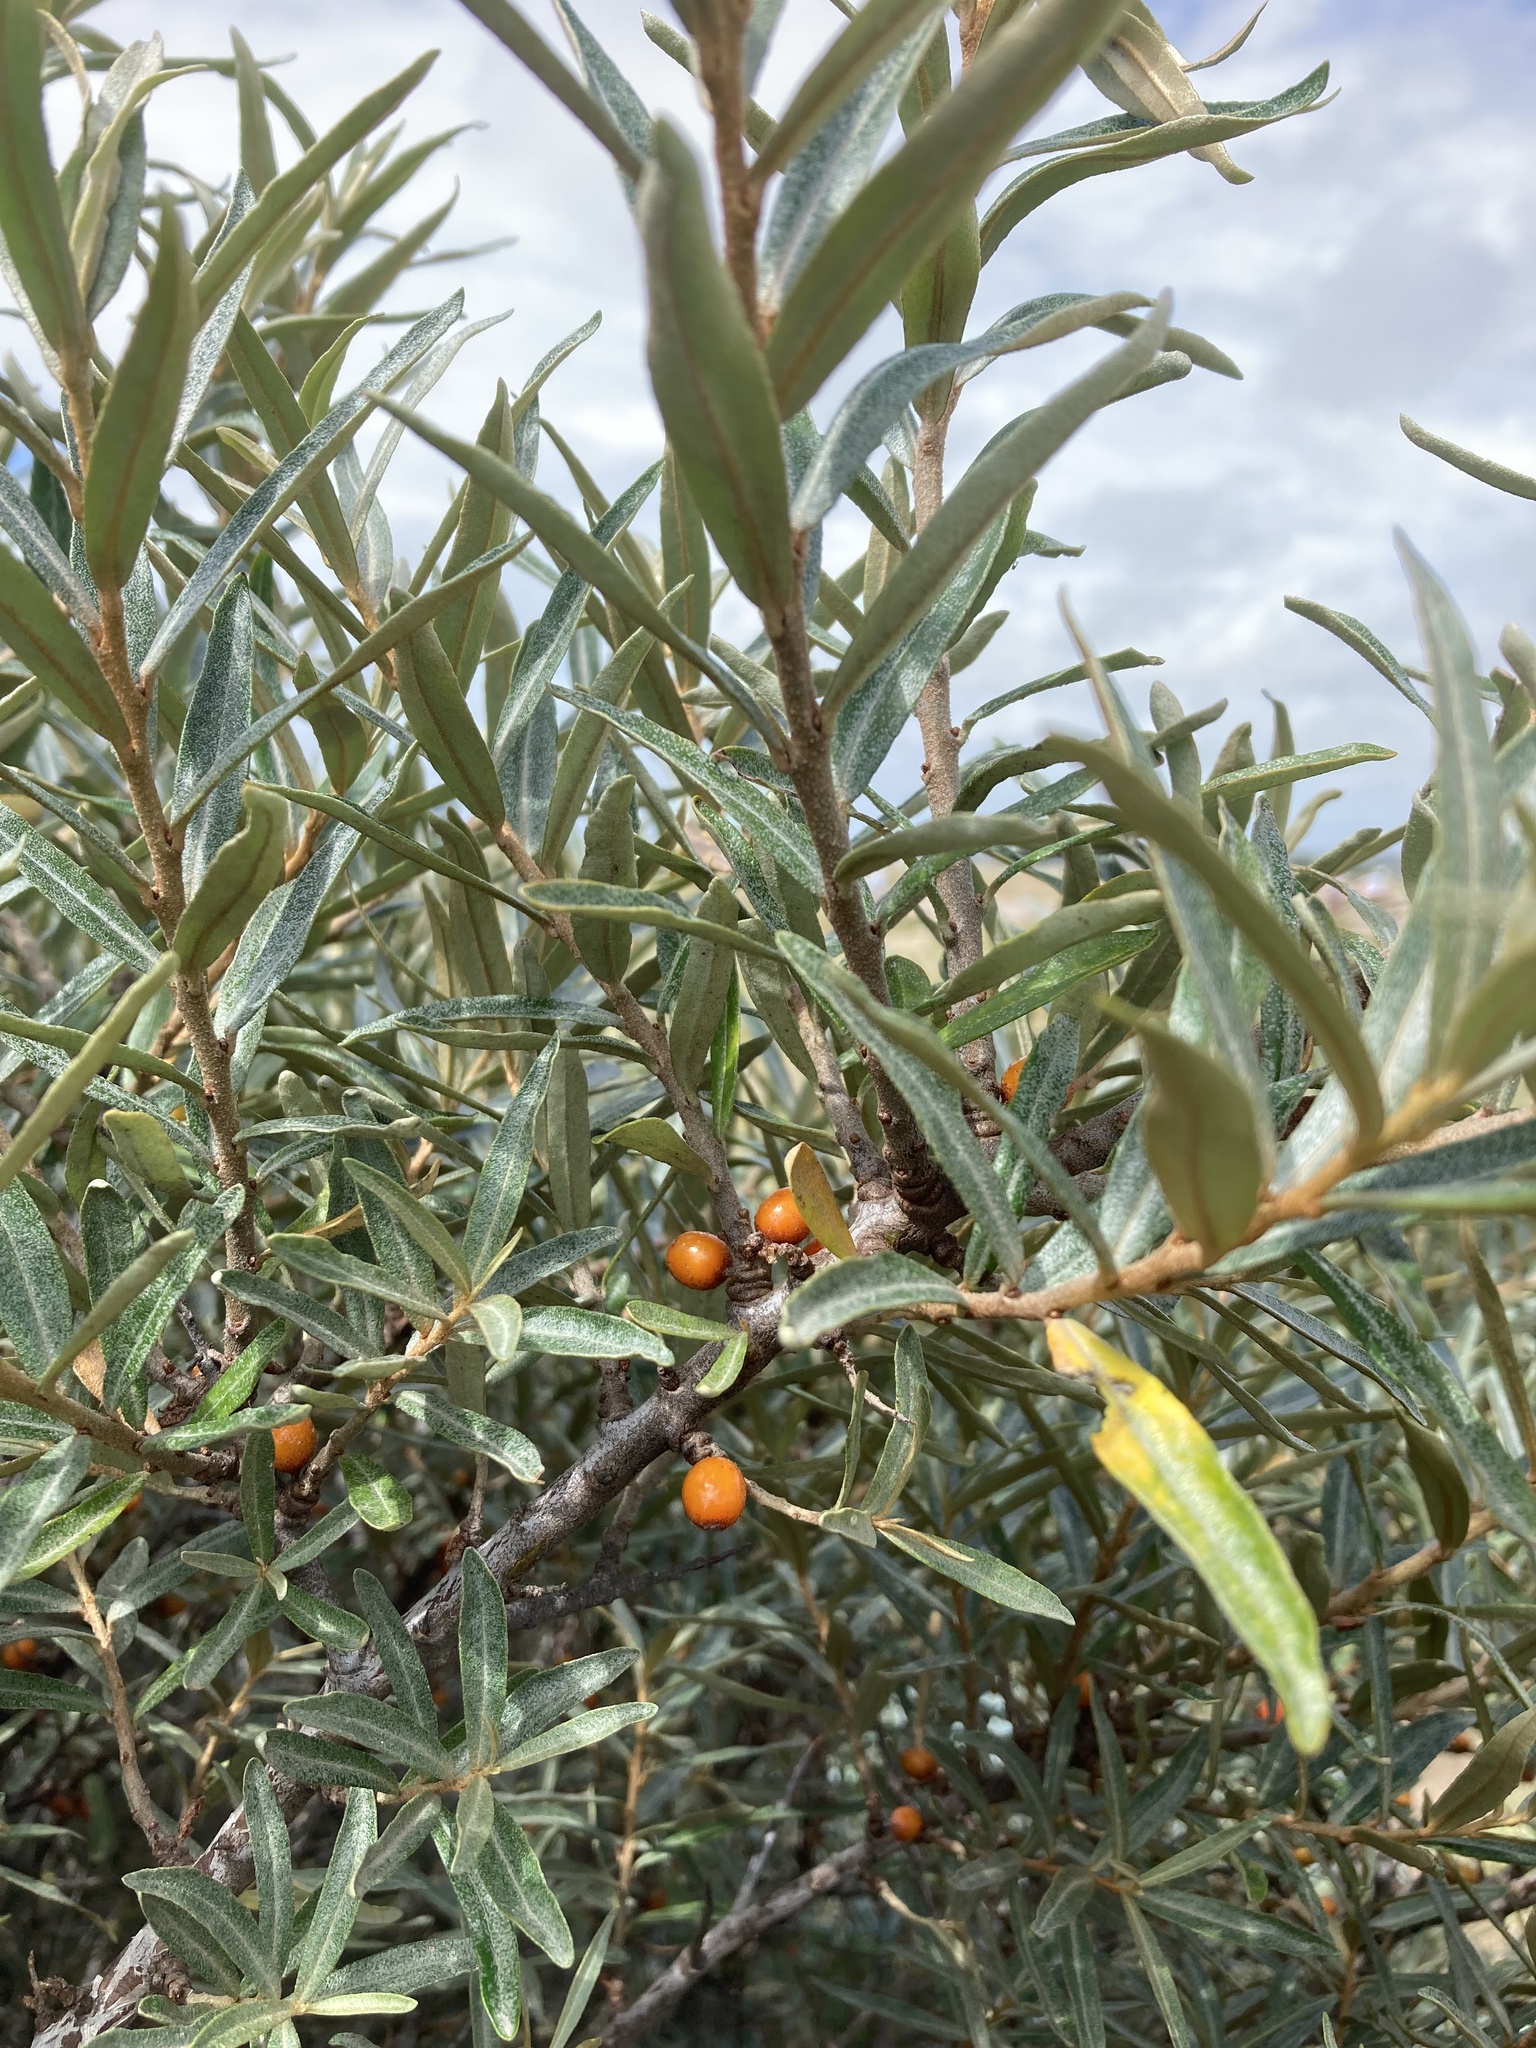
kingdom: Plantae
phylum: Tracheophyta
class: Magnoliopsida
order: Rosales
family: Elaeagnaceae
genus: Hippophae
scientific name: Hippophae rhamnoides
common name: Sea-buckthorn
